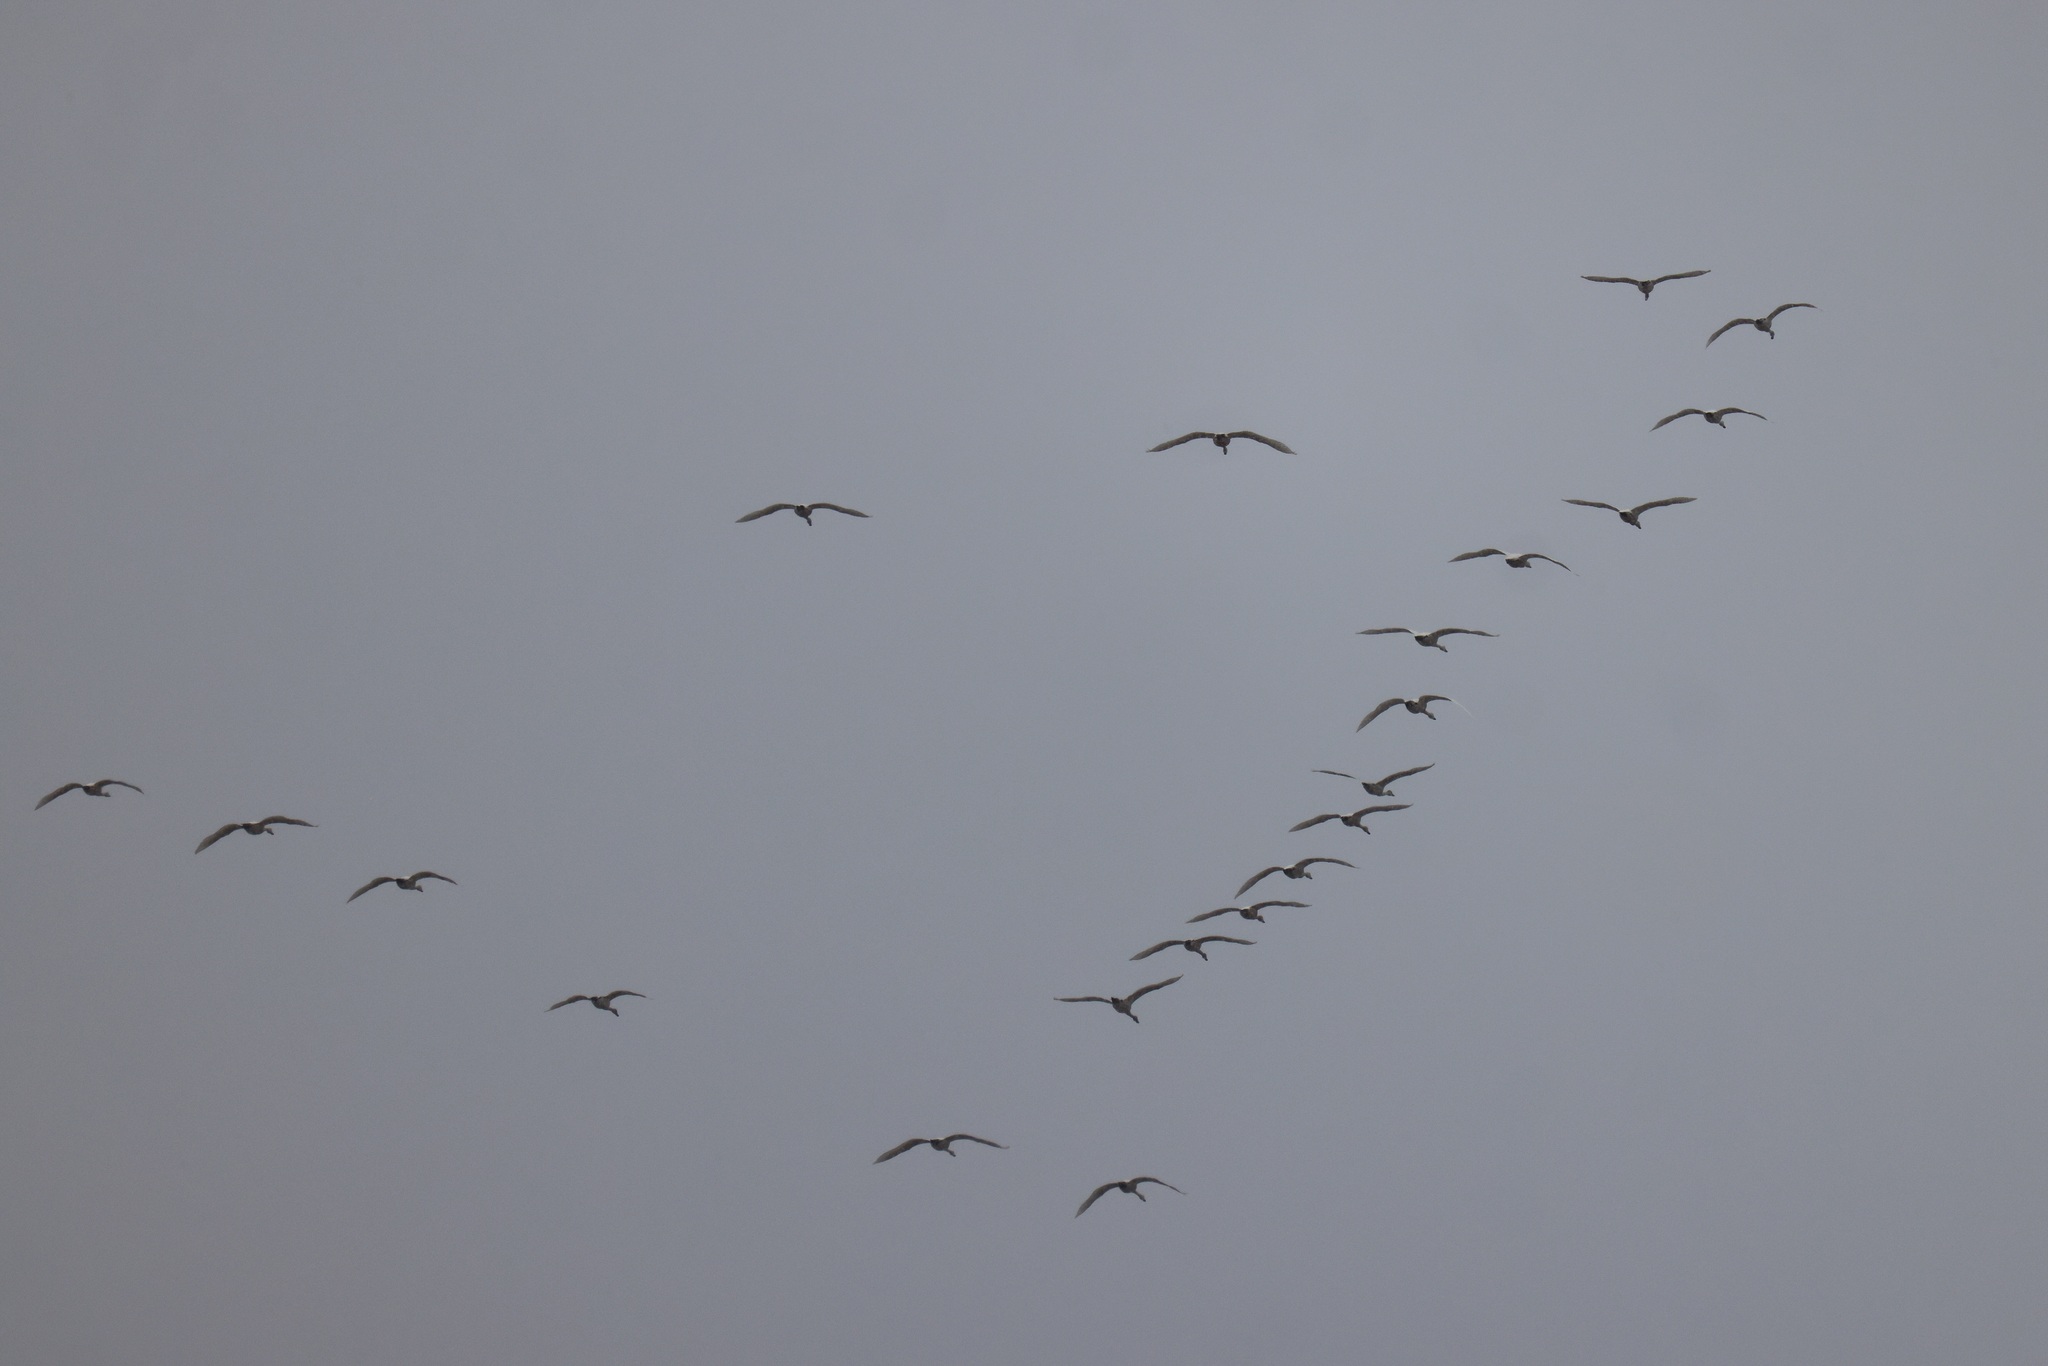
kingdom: Animalia
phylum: Chordata
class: Aves
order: Anseriformes
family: Anatidae
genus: Cygnus
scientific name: Cygnus columbianus
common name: Tundra swan
